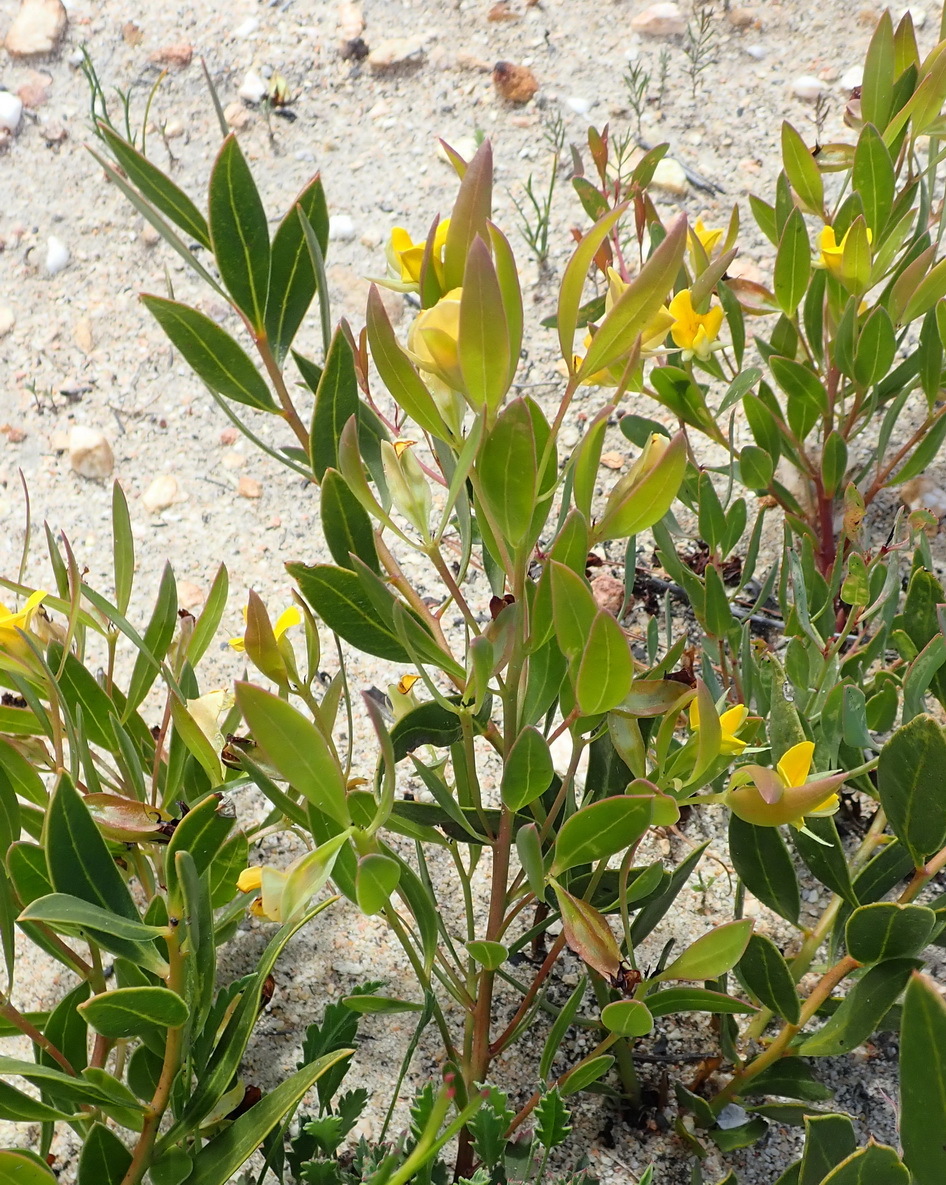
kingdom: Plantae
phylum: Tracheophyta
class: Magnoliopsida
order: Fabales
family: Fabaceae
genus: Rafnia
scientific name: Rafnia vlokii
